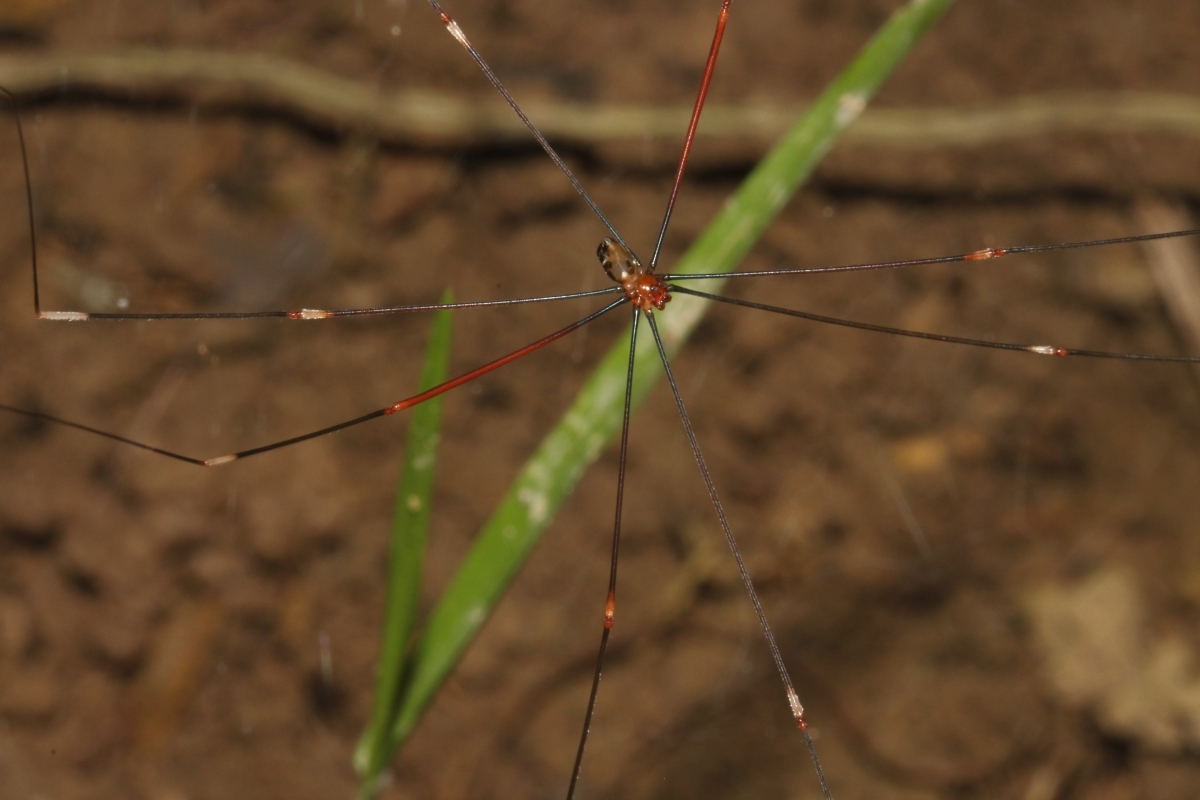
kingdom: Animalia
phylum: Arthropoda
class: Arachnida
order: Araneae
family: Pholcidae
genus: Mesabolivar
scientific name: Mesabolivar
